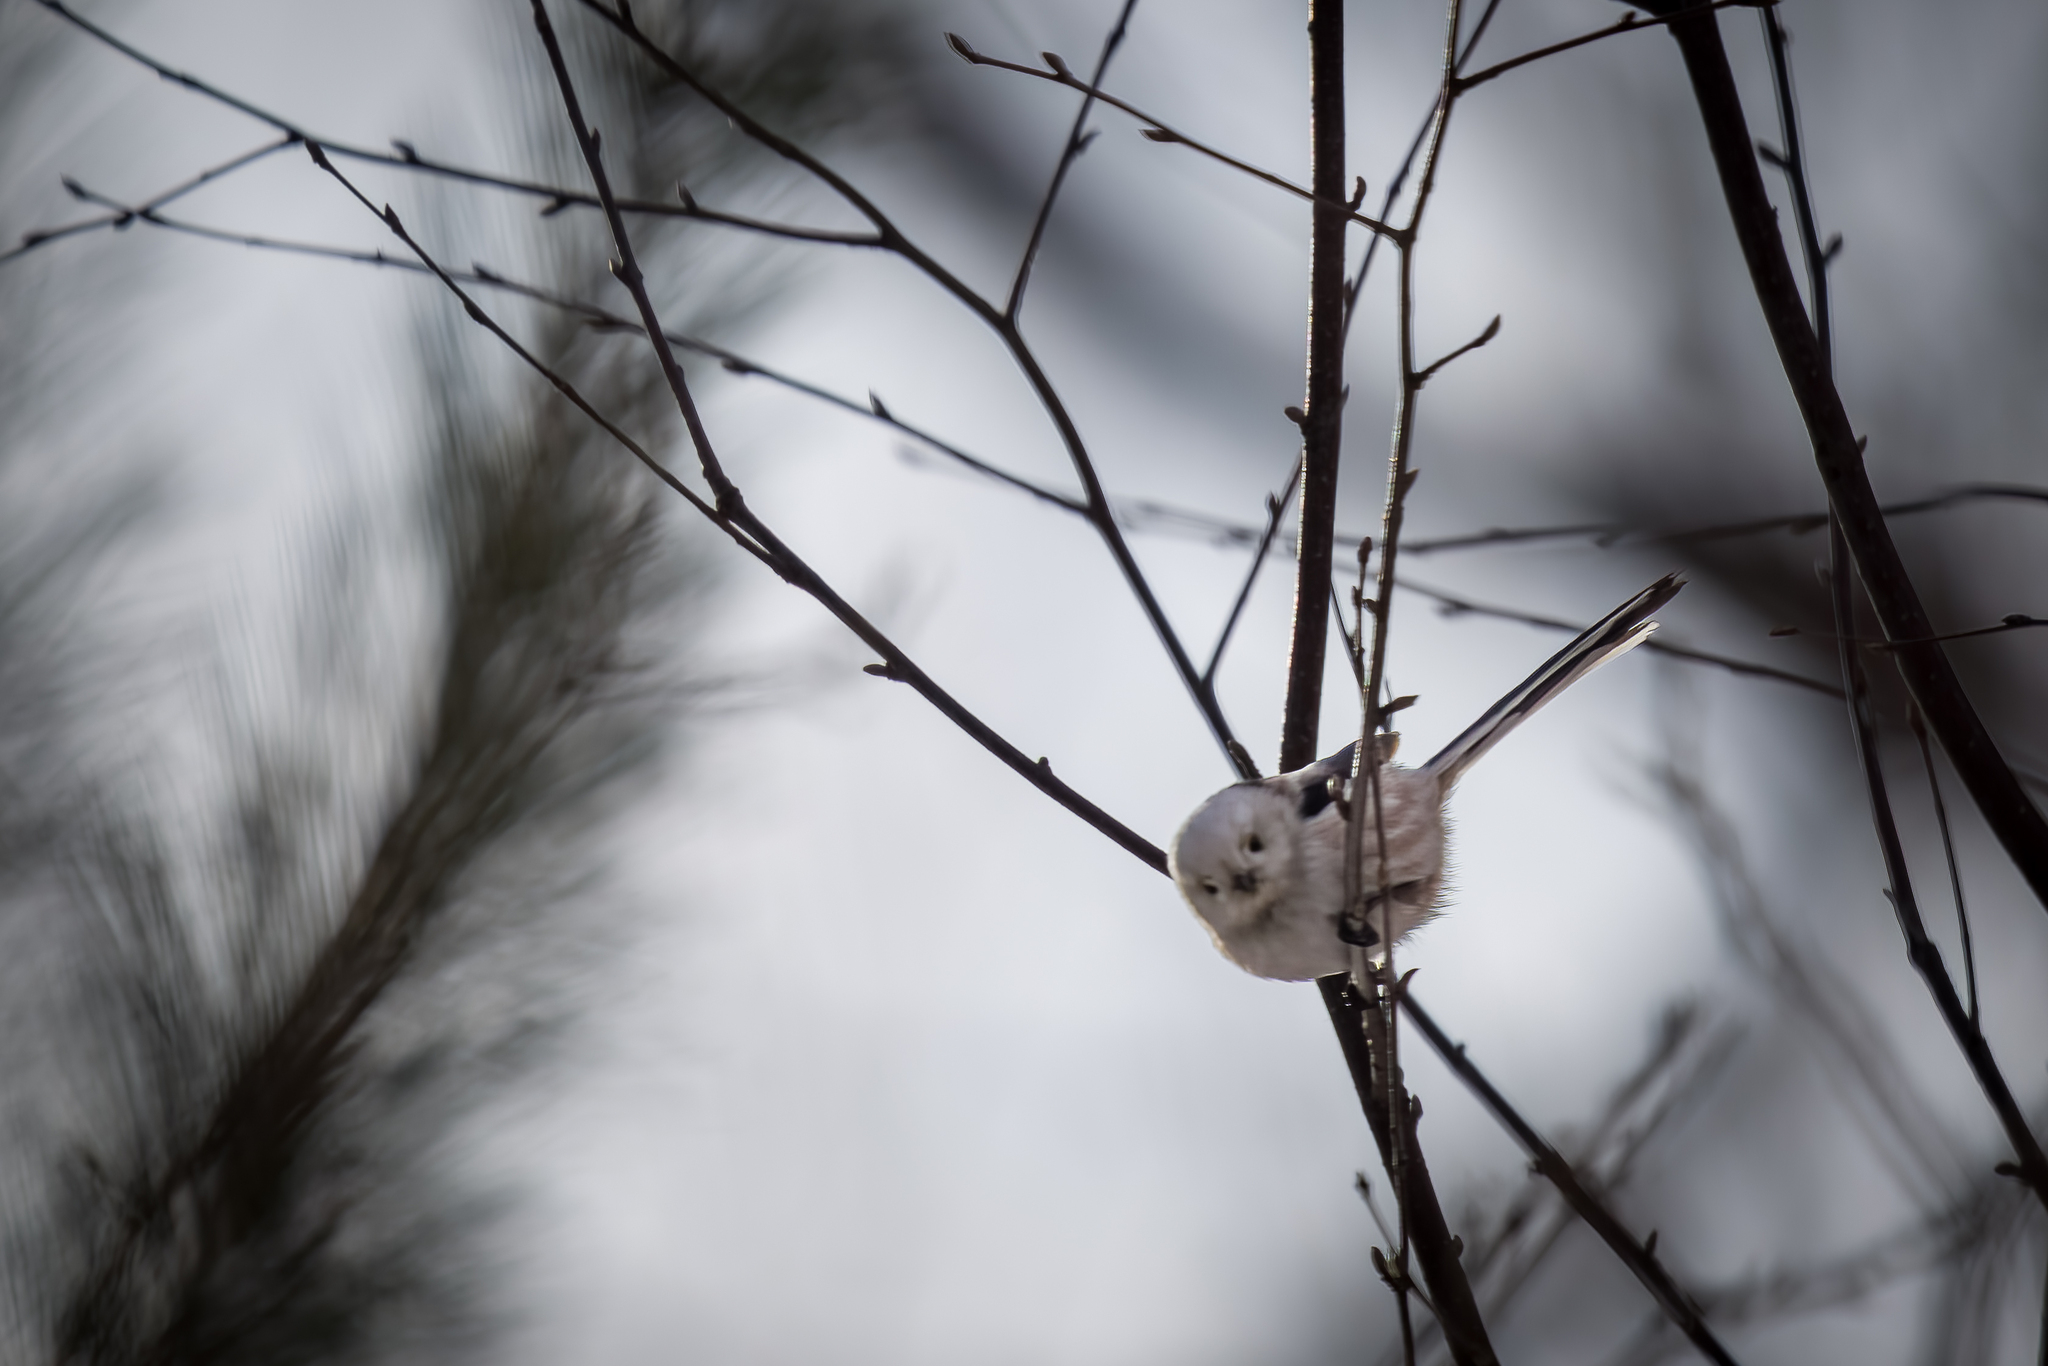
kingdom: Animalia
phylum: Chordata
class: Aves
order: Passeriformes
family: Aegithalidae
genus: Aegithalos
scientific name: Aegithalos caudatus
